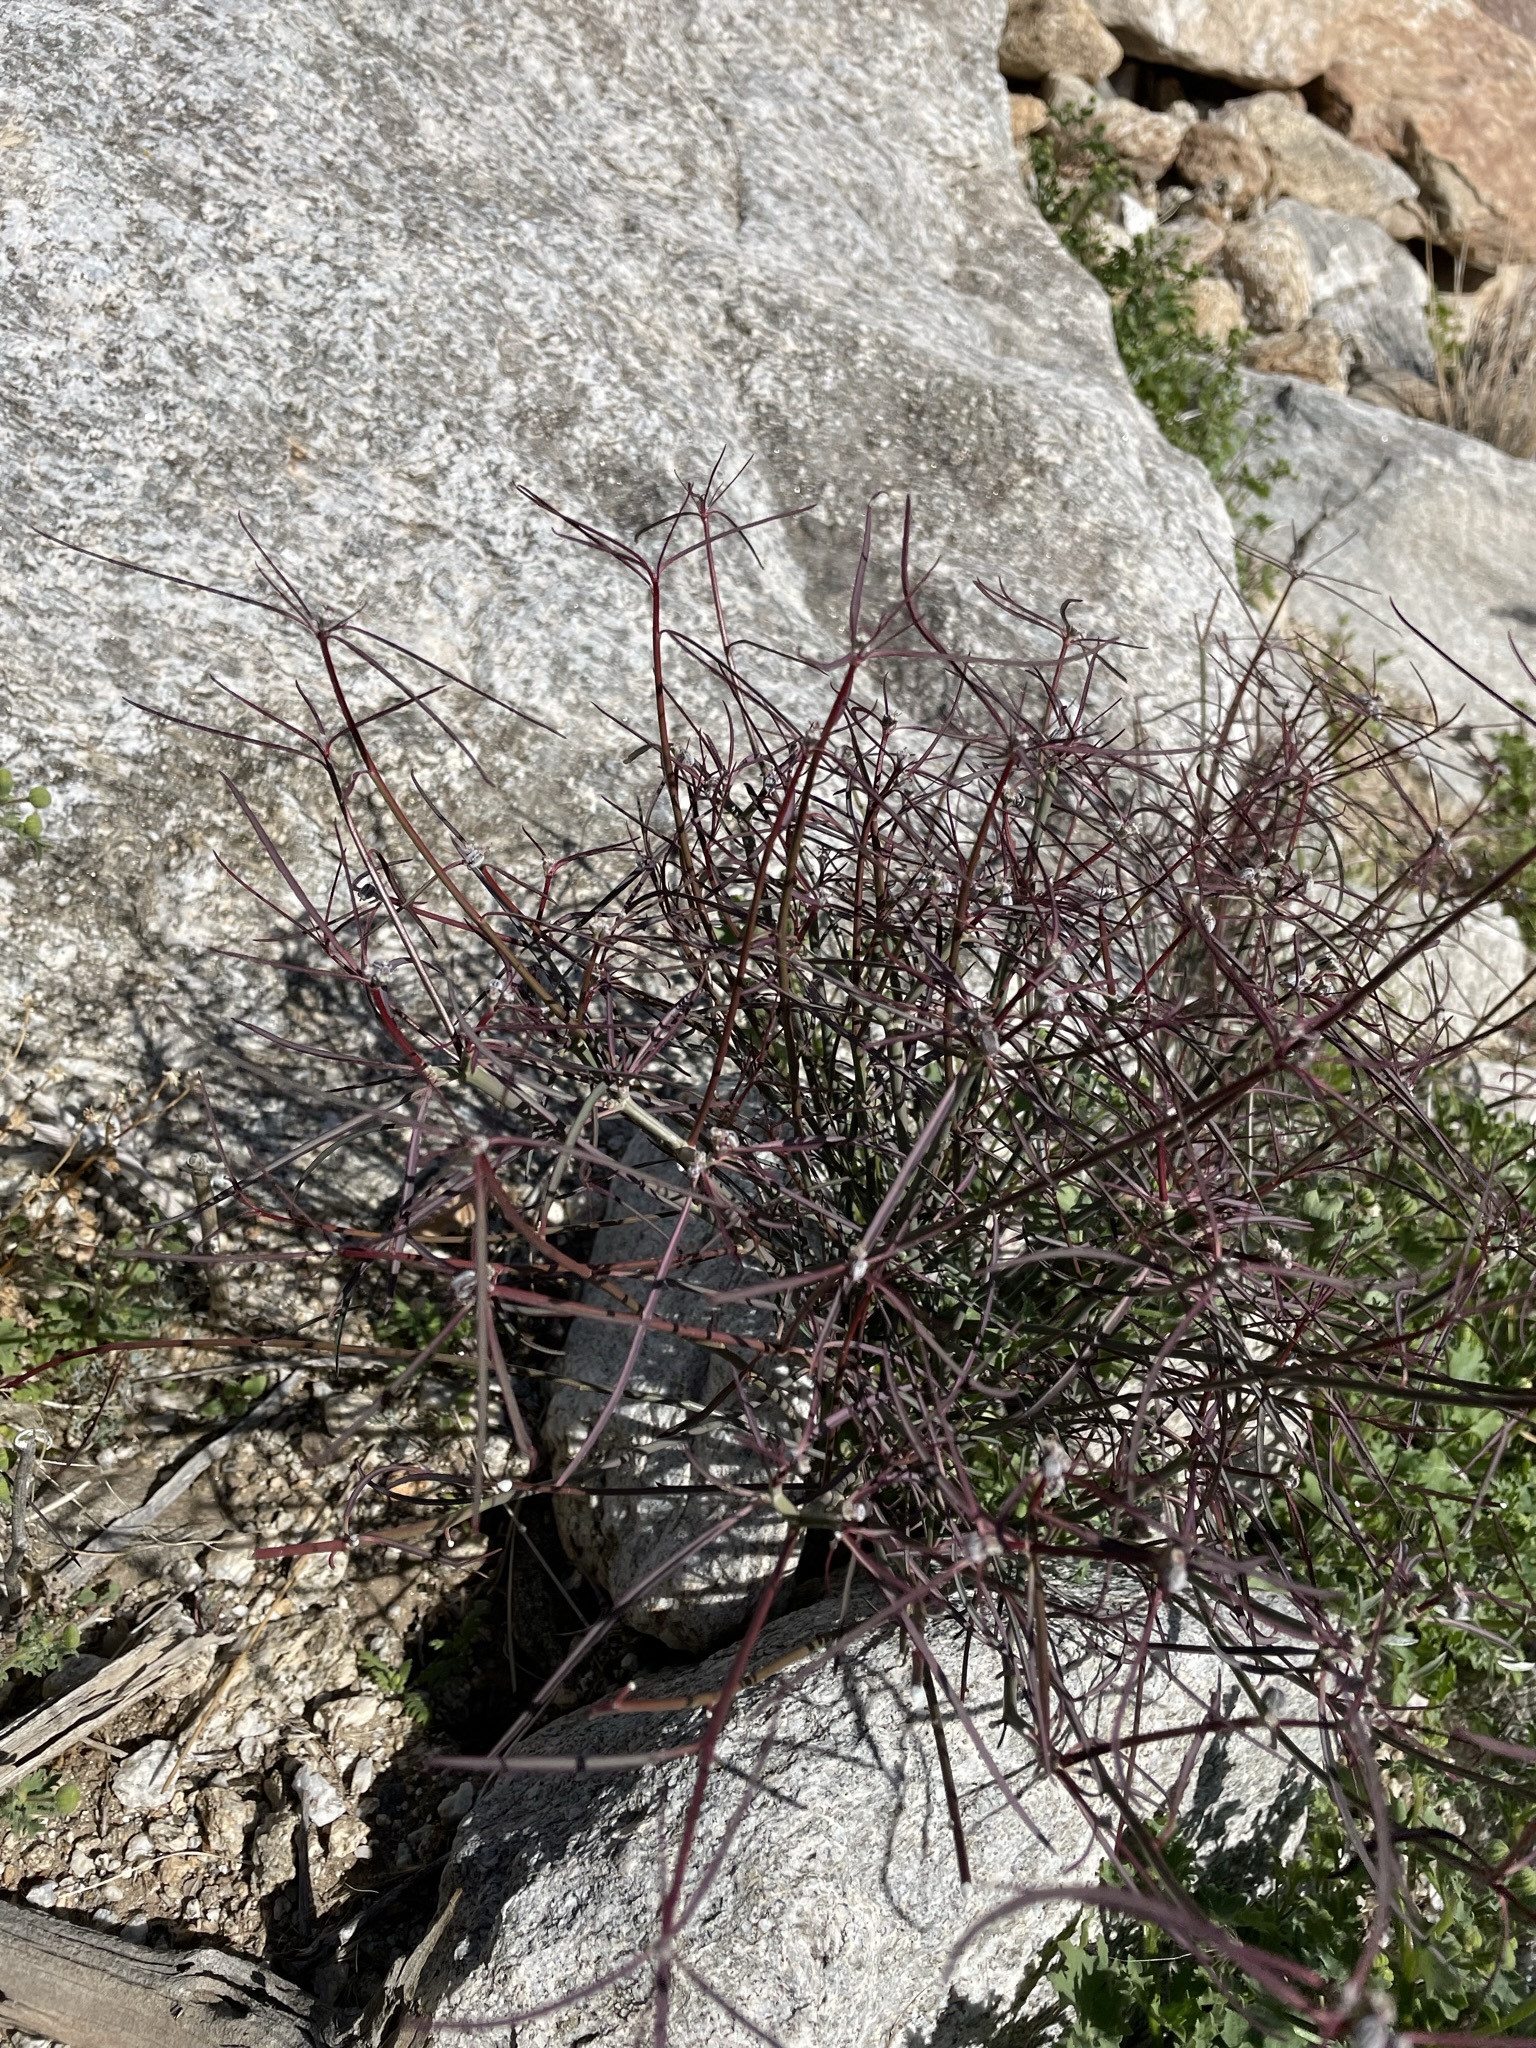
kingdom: Plantae
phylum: Tracheophyta
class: Magnoliopsida
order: Malpighiales
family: Euphorbiaceae
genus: Euphorbia
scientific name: Euphorbia eriantha
